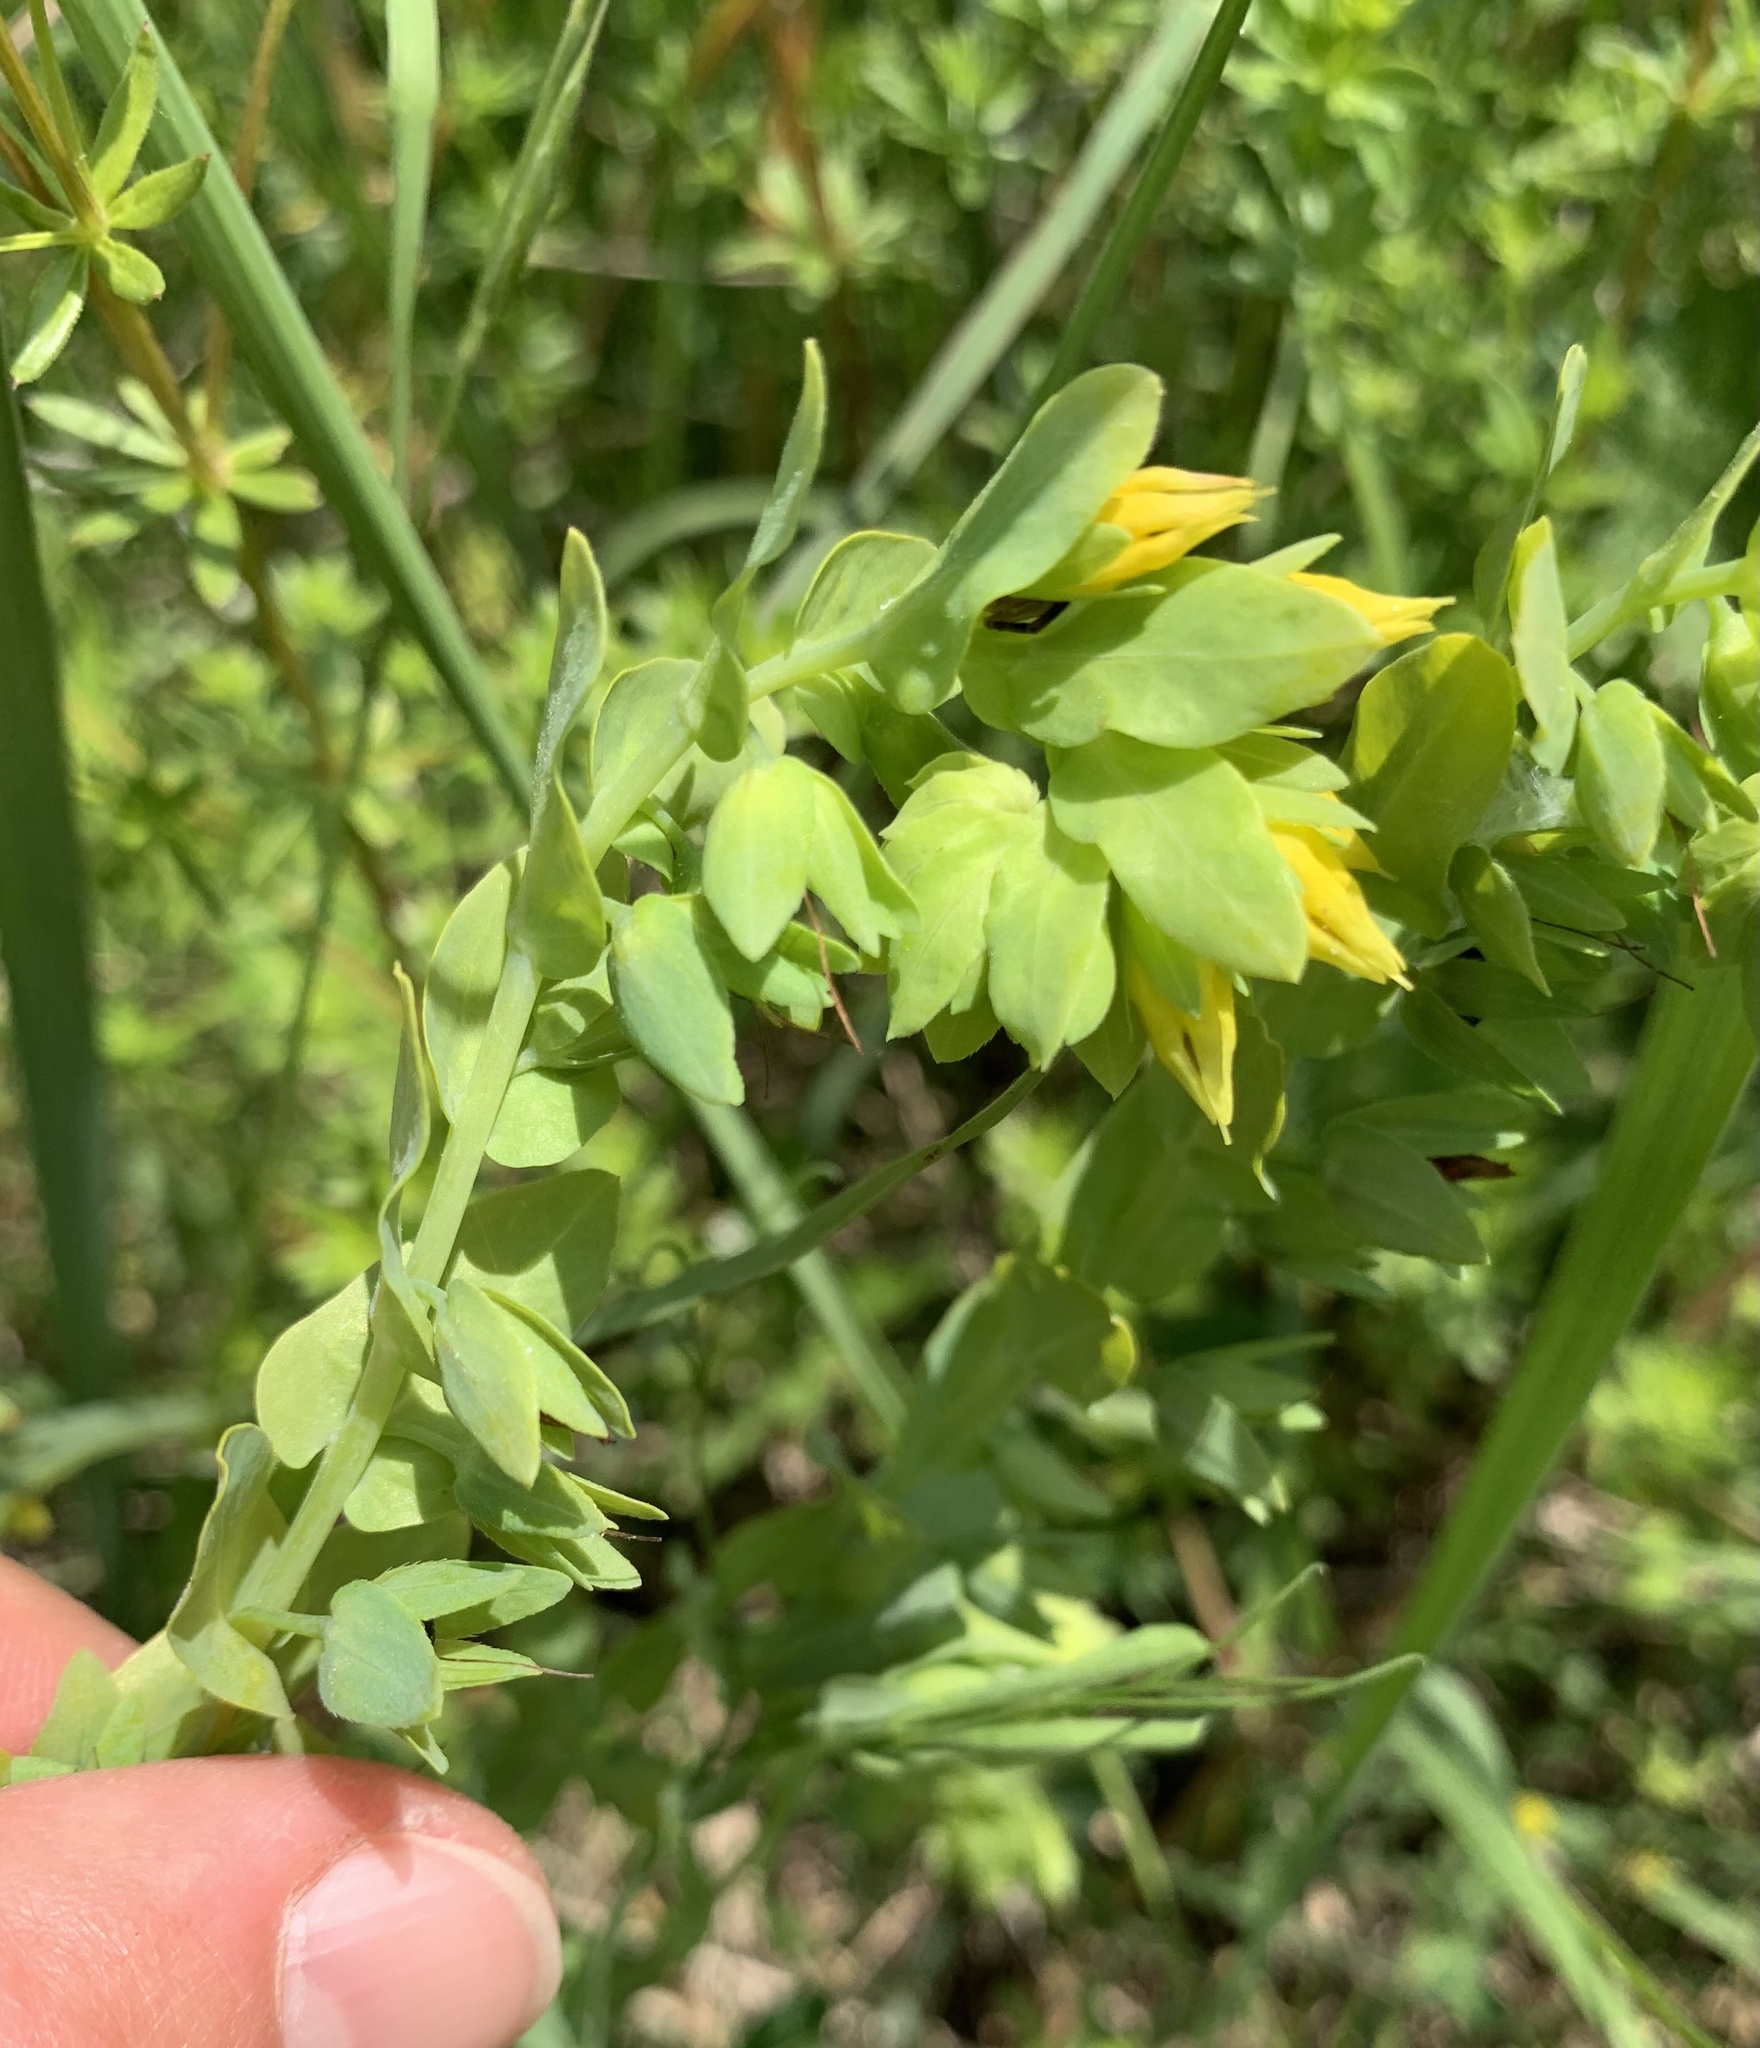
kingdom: Plantae
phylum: Tracheophyta
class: Magnoliopsida
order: Boraginales
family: Boraginaceae
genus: Cerinthe
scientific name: Cerinthe minor
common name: Lesser honeywort
